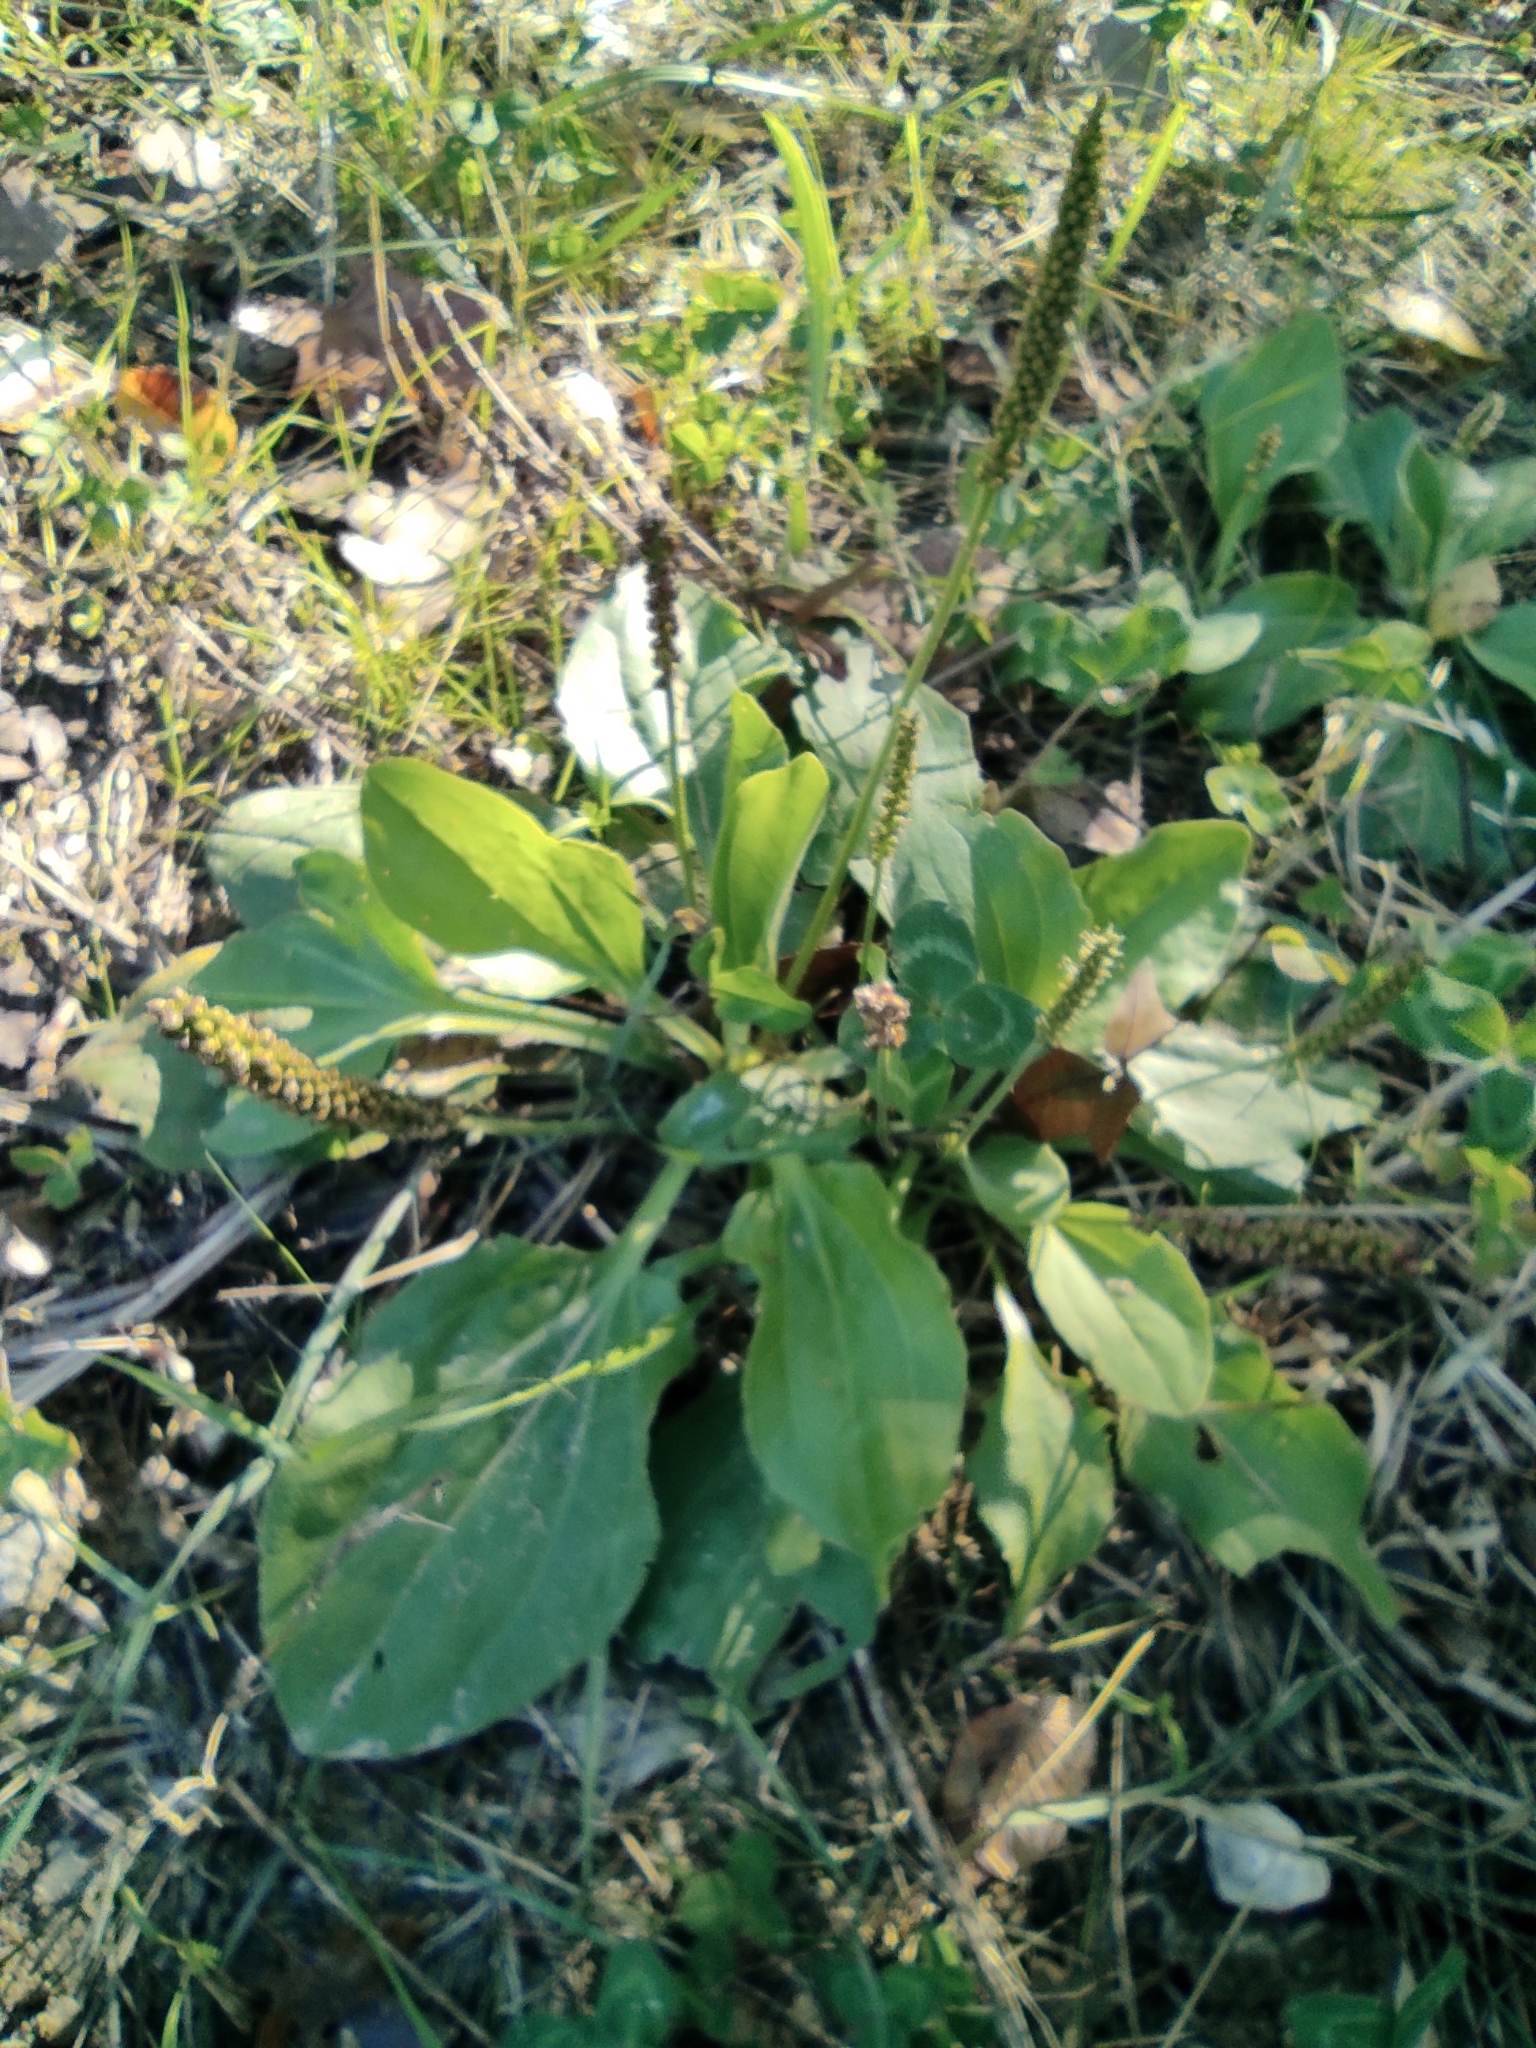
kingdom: Plantae
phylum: Tracheophyta
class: Magnoliopsida
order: Lamiales
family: Plantaginaceae
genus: Plantago
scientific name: Plantago major
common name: Common plantain
